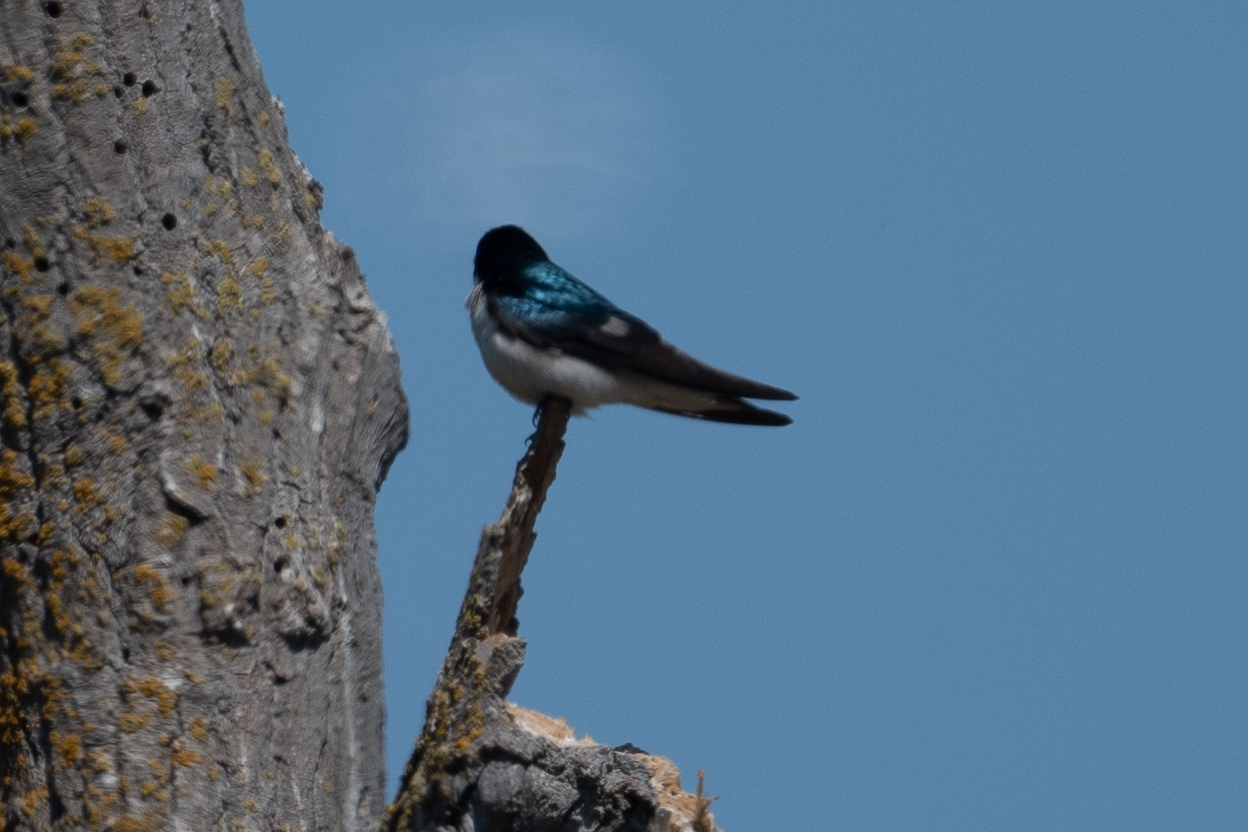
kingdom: Animalia
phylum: Chordata
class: Aves
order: Passeriformes
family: Hirundinidae
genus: Tachycineta
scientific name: Tachycineta bicolor
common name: Tree swallow
